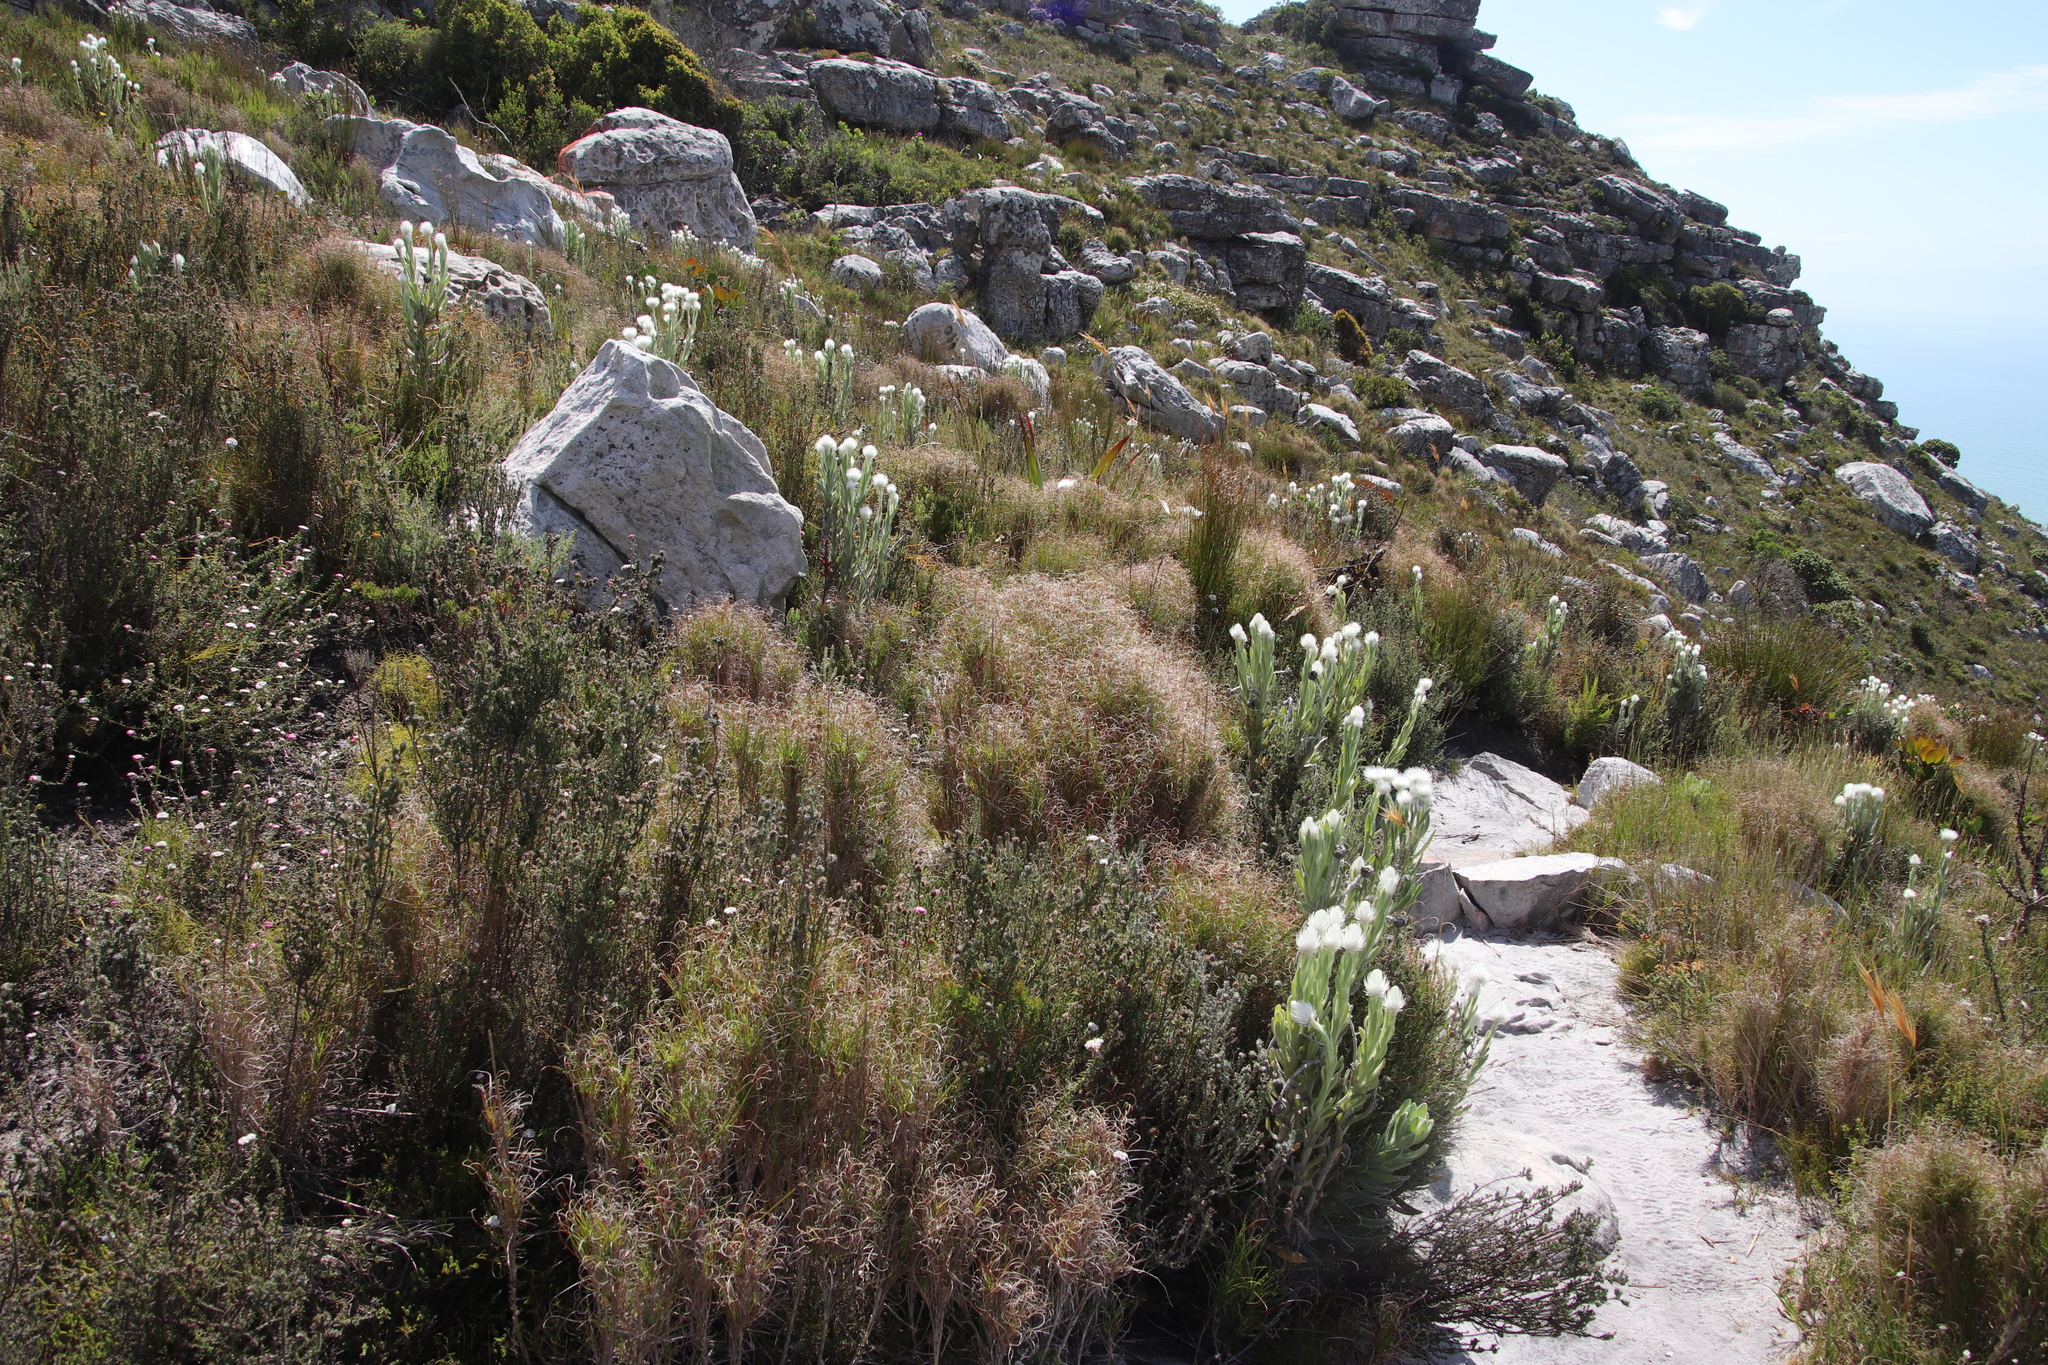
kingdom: Plantae
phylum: Tracheophyta
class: Liliopsida
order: Poales
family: Poaceae
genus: Pseudopentameris
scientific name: Pseudopentameris macrantha
